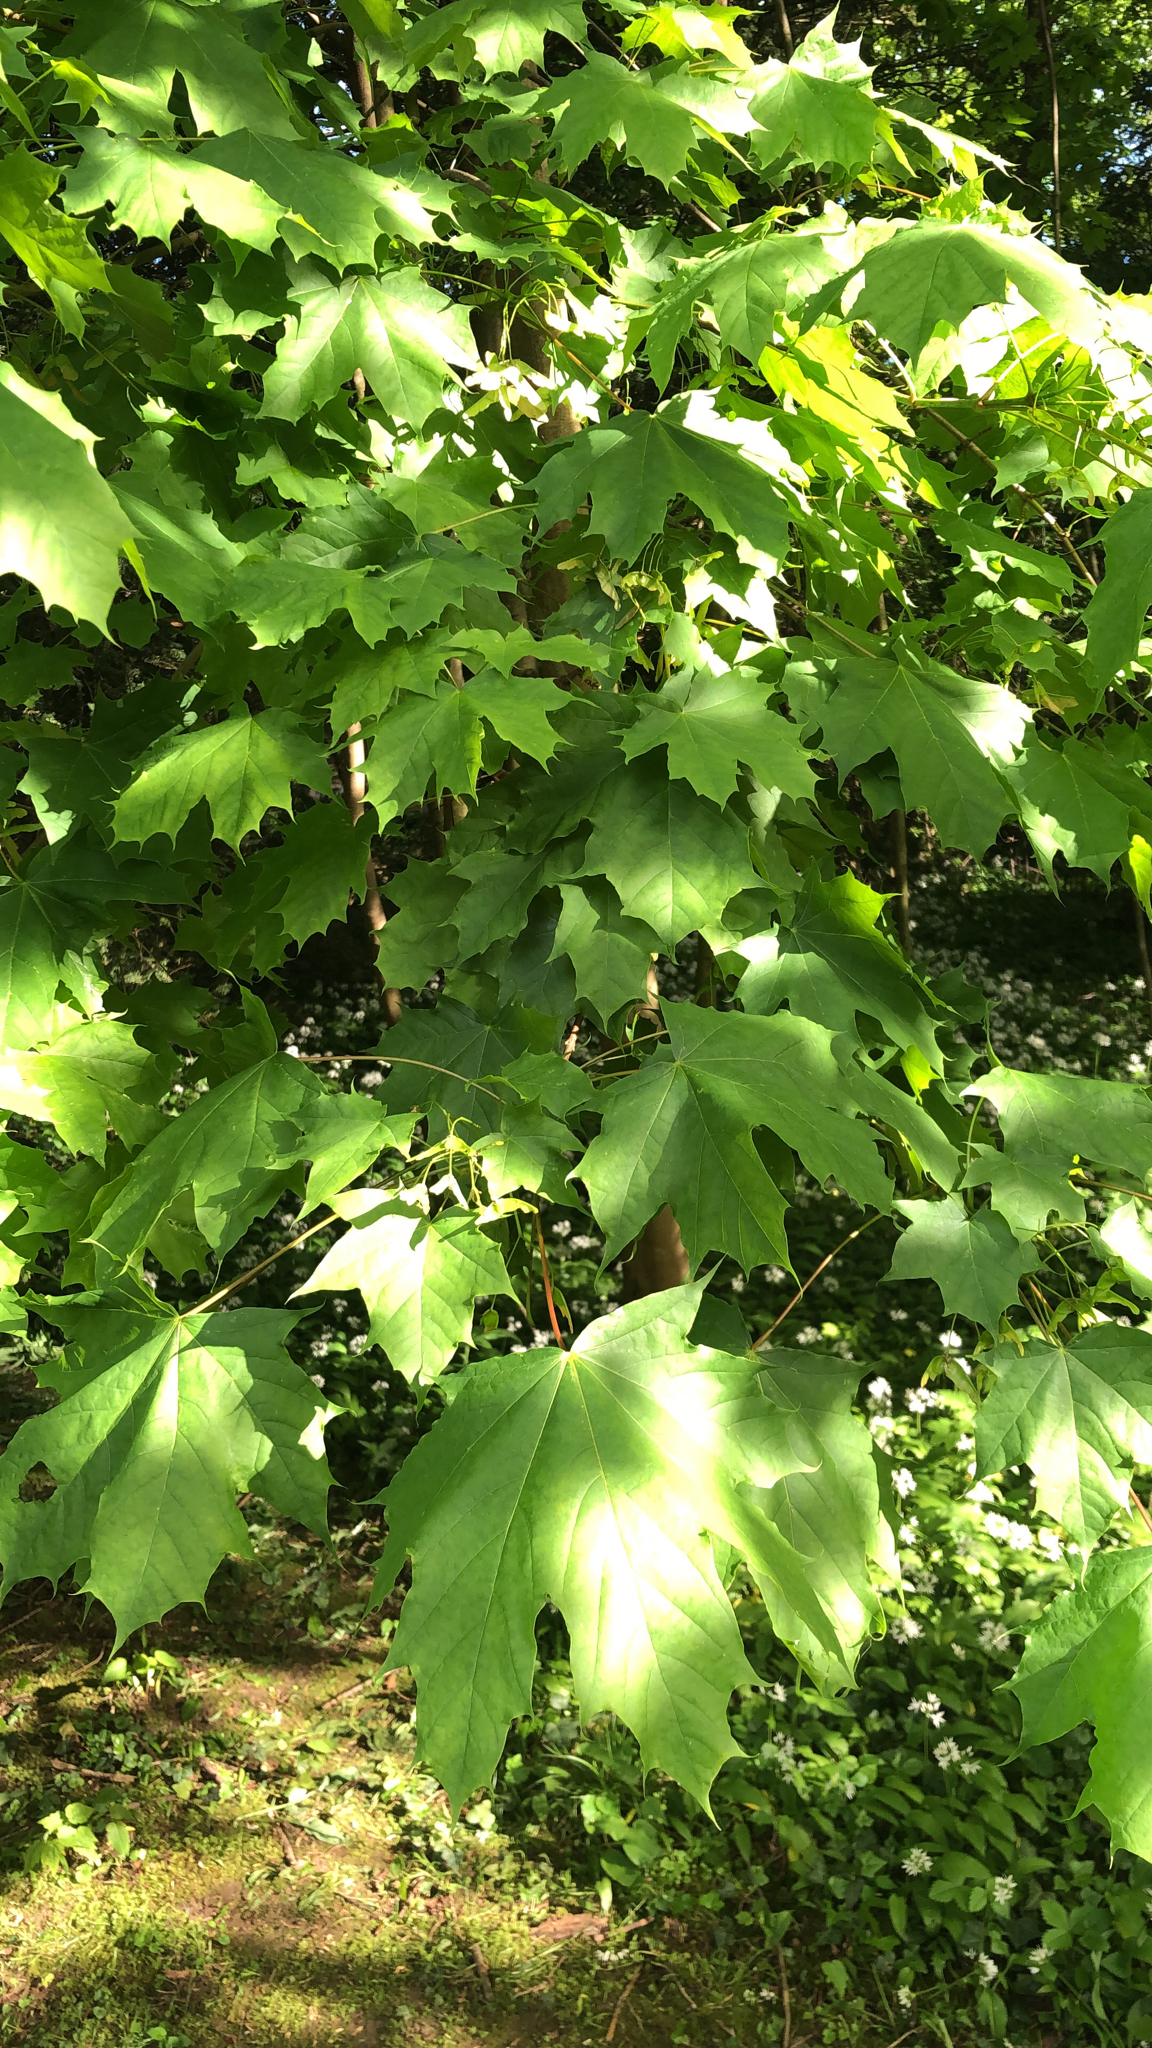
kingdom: Plantae
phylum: Tracheophyta
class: Magnoliopsida
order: Sapindales
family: Sapindaceae
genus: Acer
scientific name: Acer platanoides
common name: Norway maple
